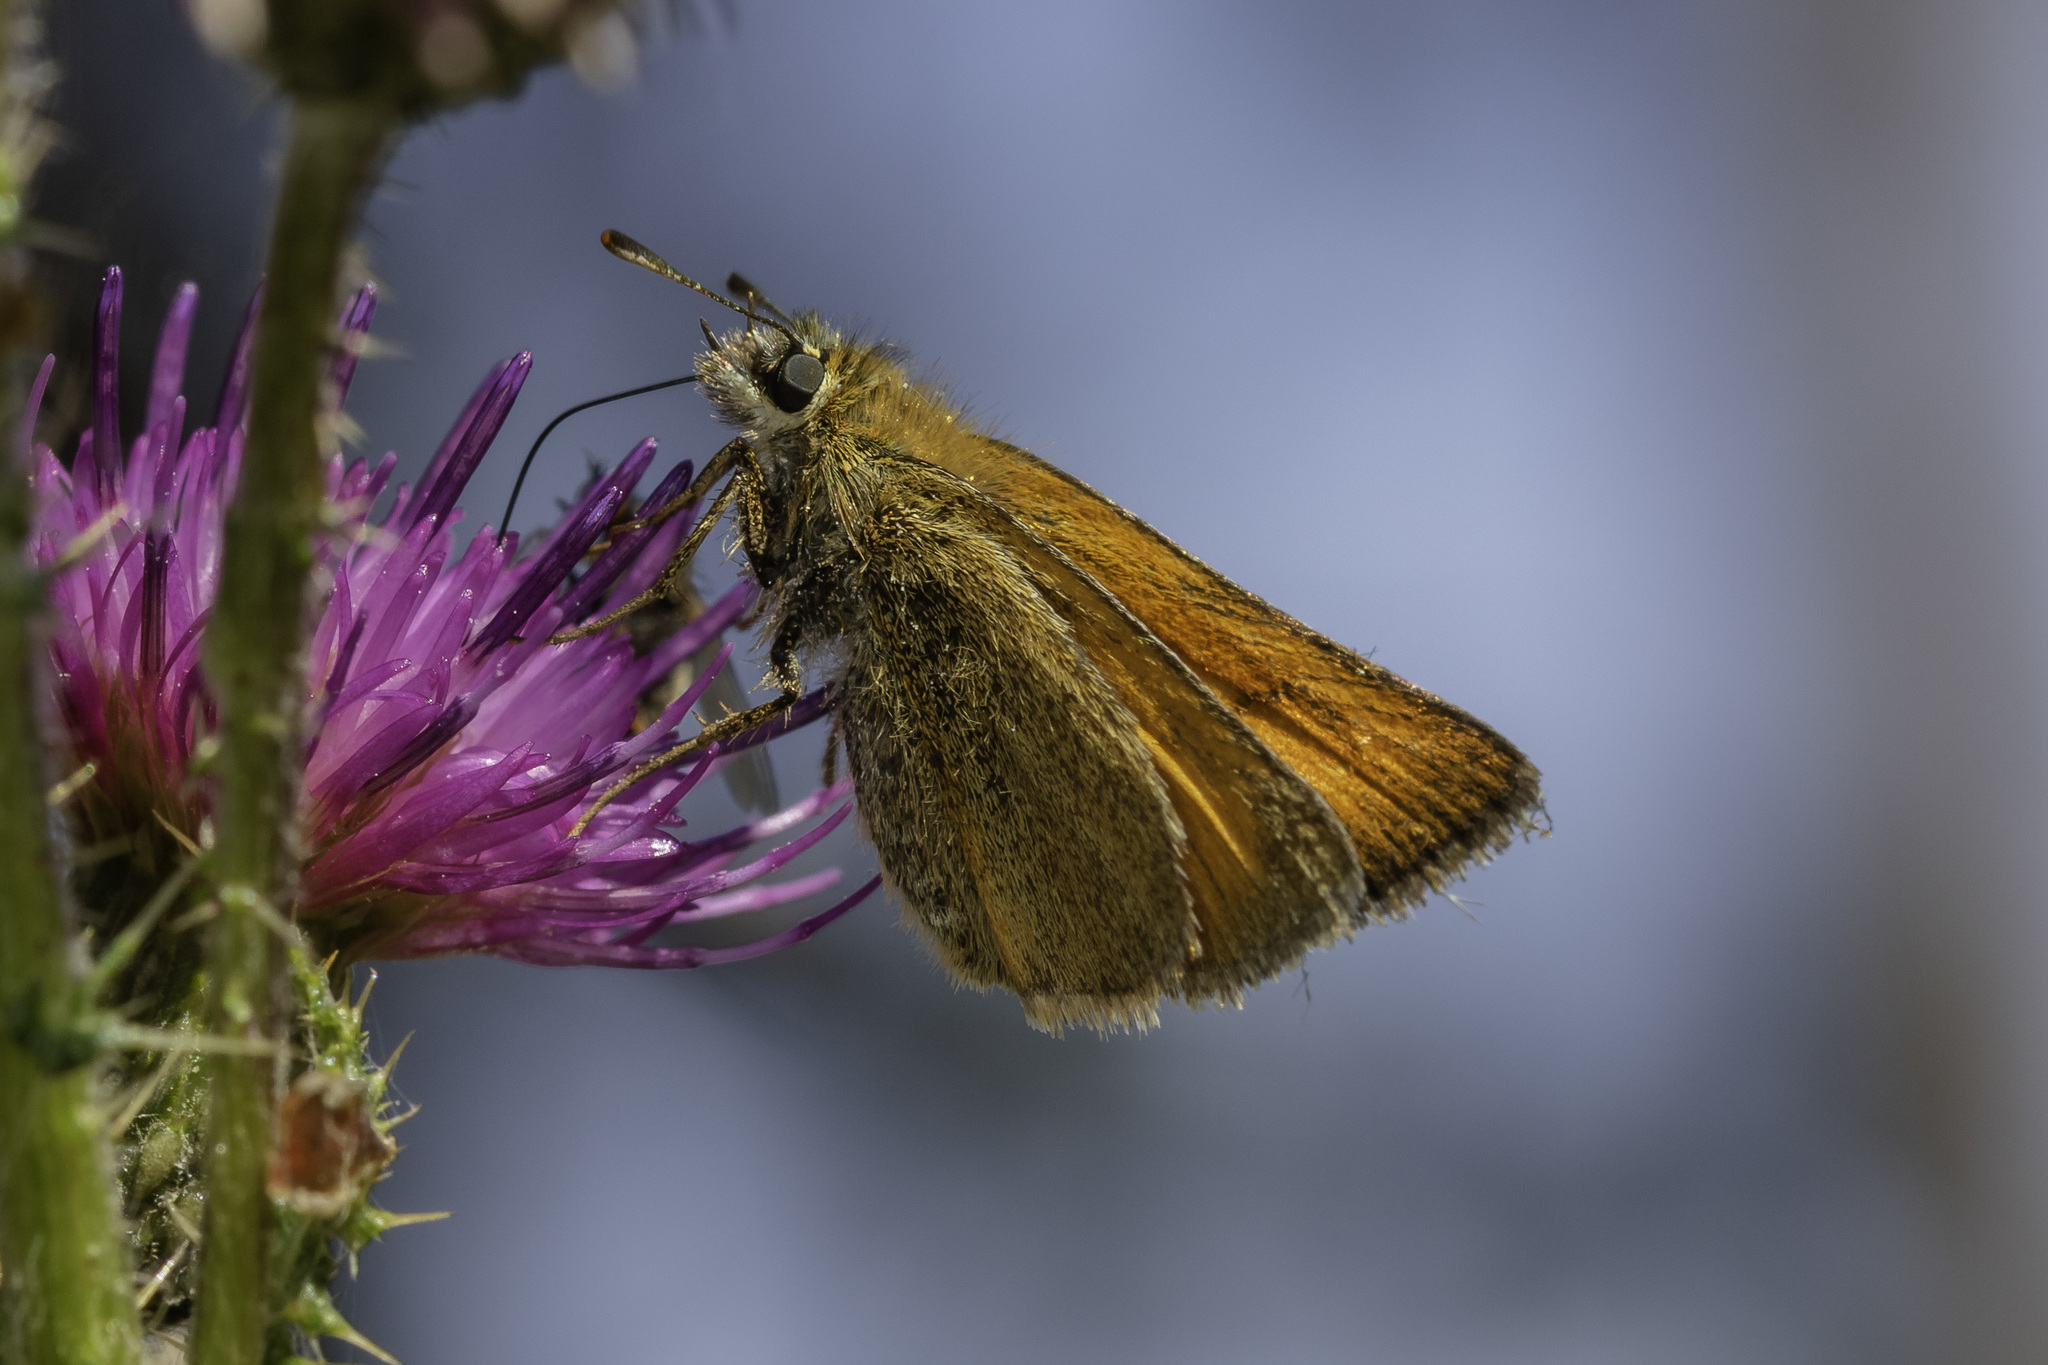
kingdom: Animalia
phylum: Arthropoda
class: Insecta
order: Lepidoptera
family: Hesperiidae
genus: Thymelicus
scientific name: Thymelicus sylvestris
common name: Small skipper
